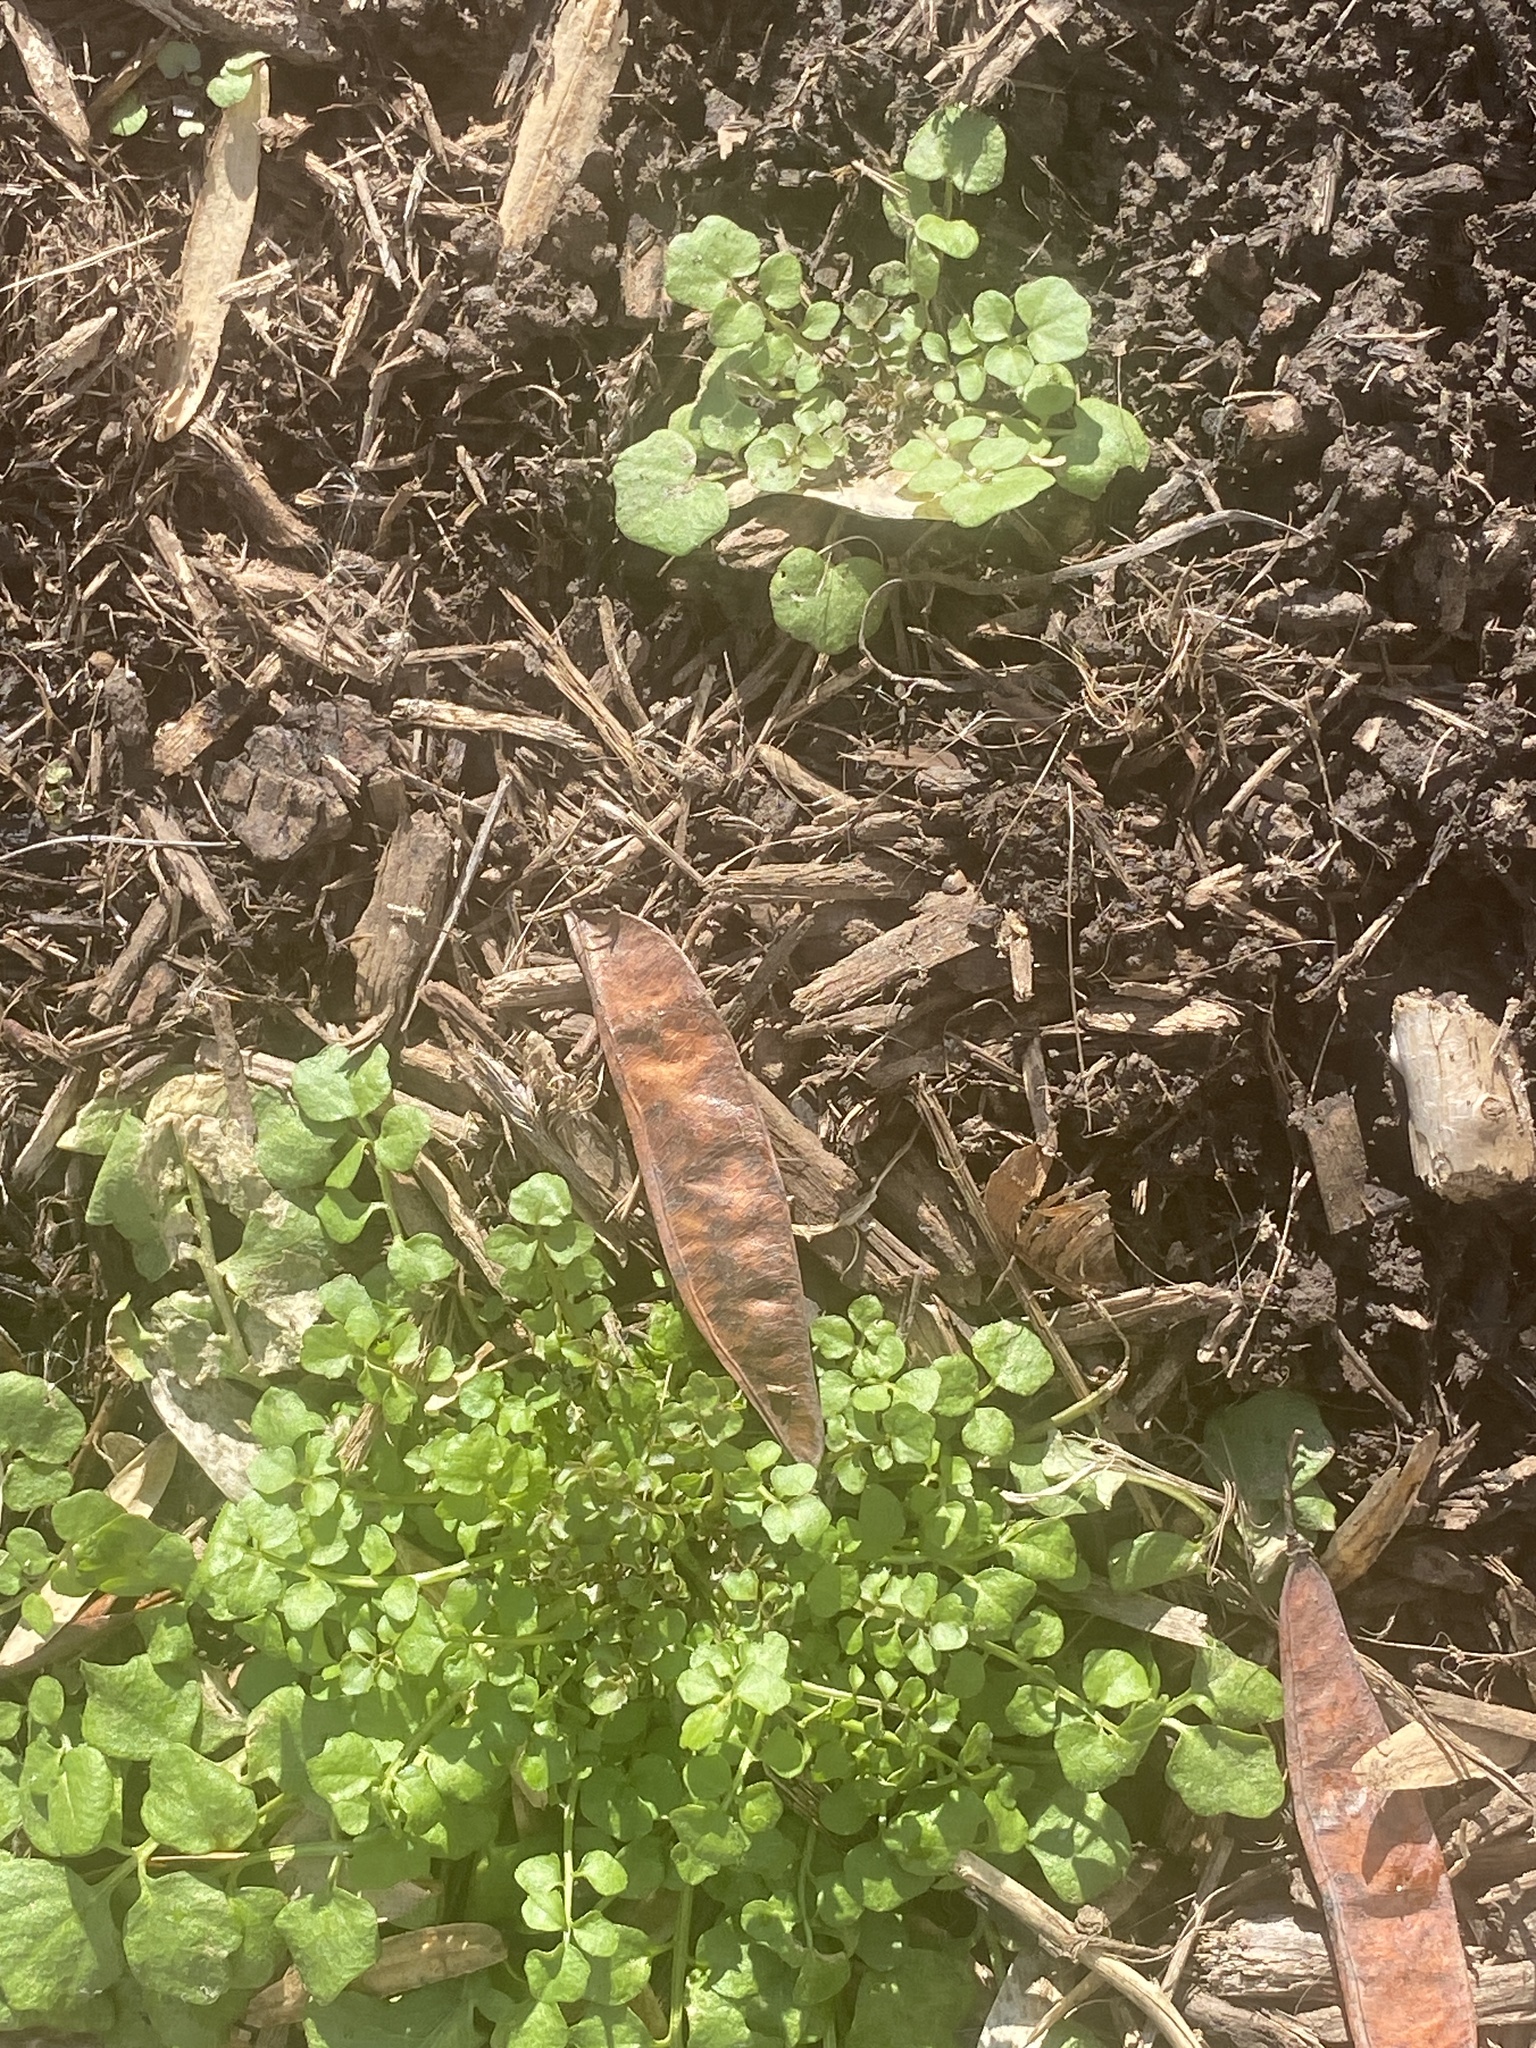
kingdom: Plantae
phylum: Tracheophyta
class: Magnoliopsida
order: Brassicales
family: Brassicaceae
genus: Cardamine
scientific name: Cardamine hirsuta
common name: Hairy bittercress
